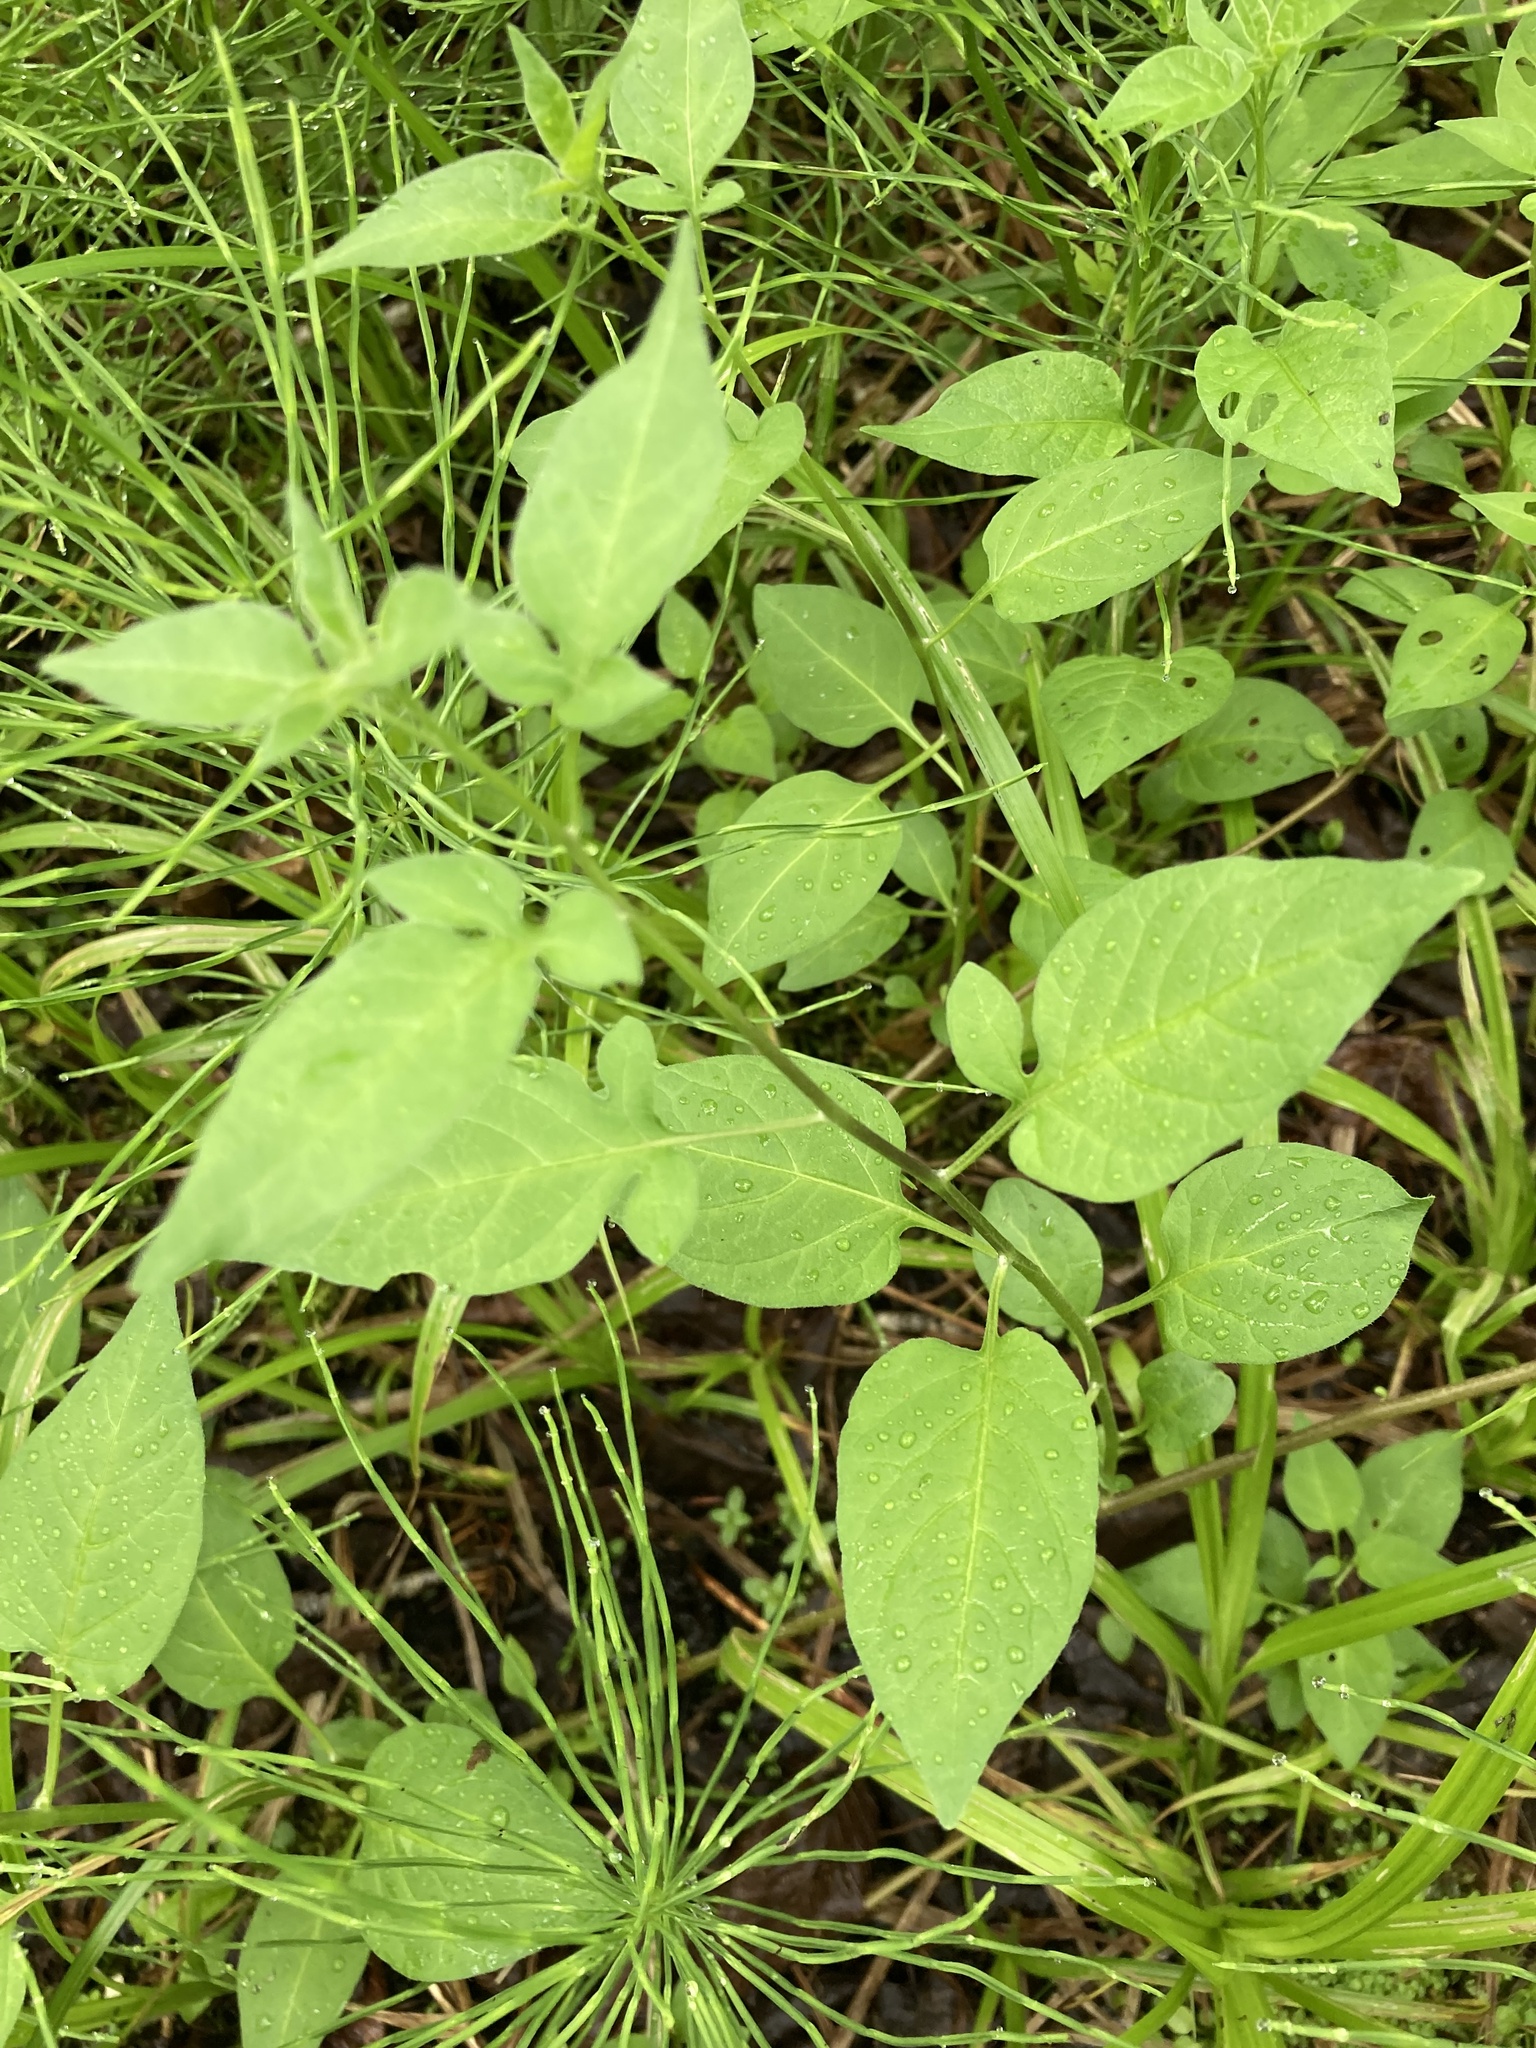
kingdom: Plantae
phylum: Tracheophyta
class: Magnoliopsida
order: Solanales
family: Solanaceae
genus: Solanum
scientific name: Solanum dulcamara
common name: Climbing nightshade
